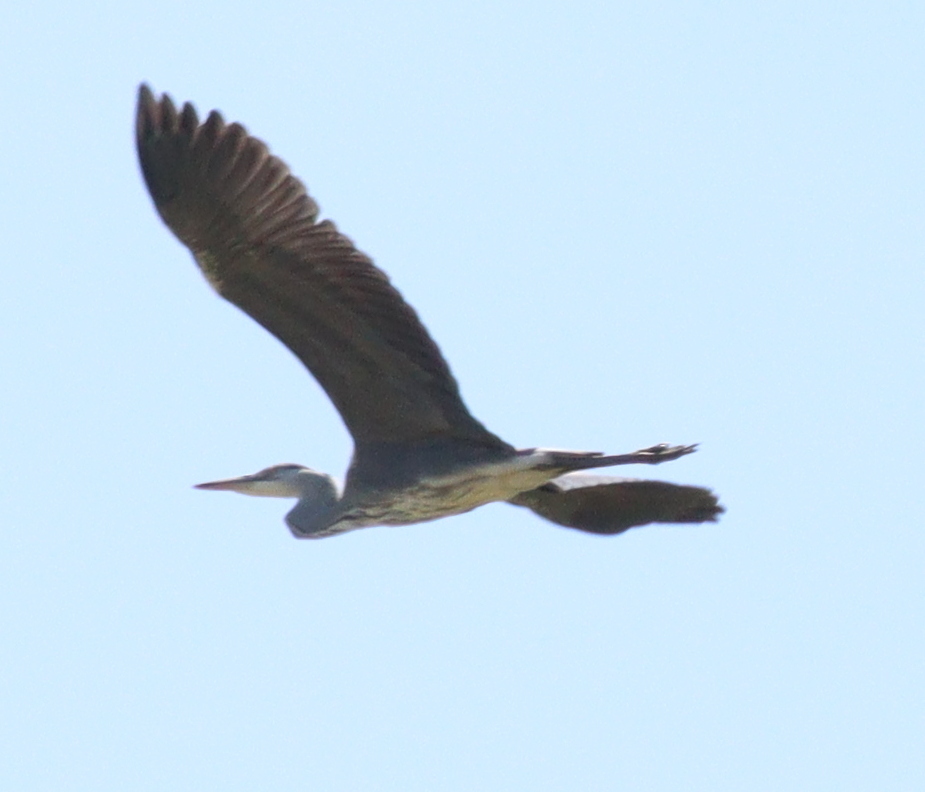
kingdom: Animalia
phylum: Chordata
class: Aves
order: Pelecaniformes
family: Ardeidae
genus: Ardea
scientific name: Ardea cinerea
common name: Grey heron
